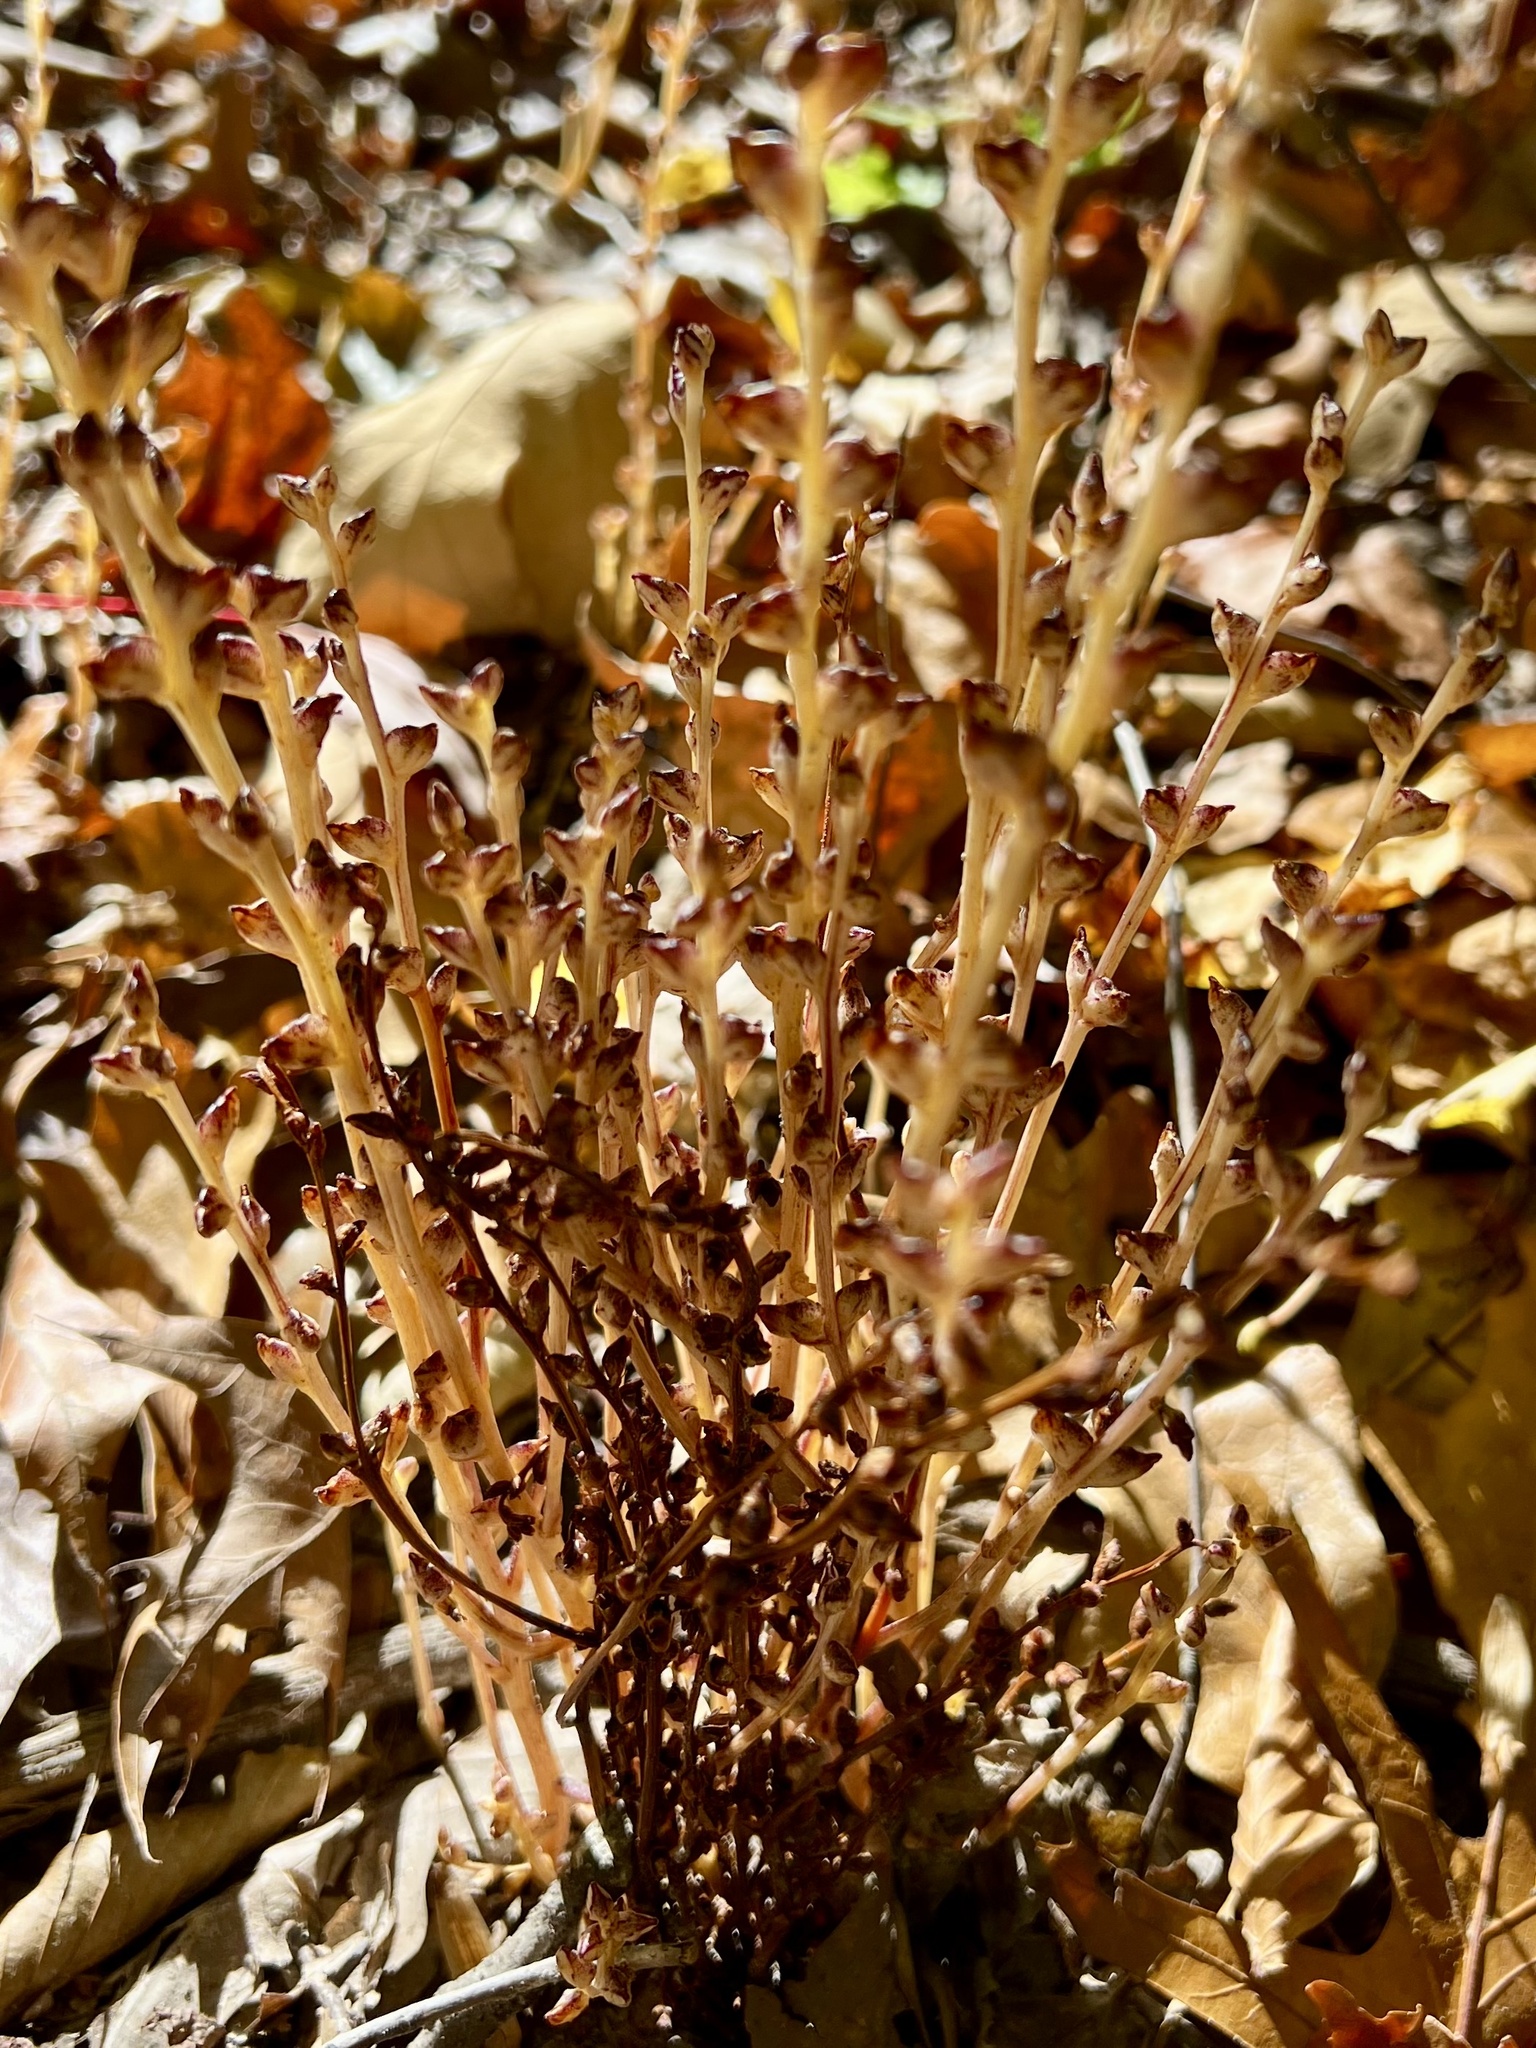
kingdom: Plantae
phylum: Tracheophyta
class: Magnoliopsida
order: Lamiales
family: Orobanchaceae
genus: Epifagus
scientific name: Epifagus virginiana
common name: Beechdrops
